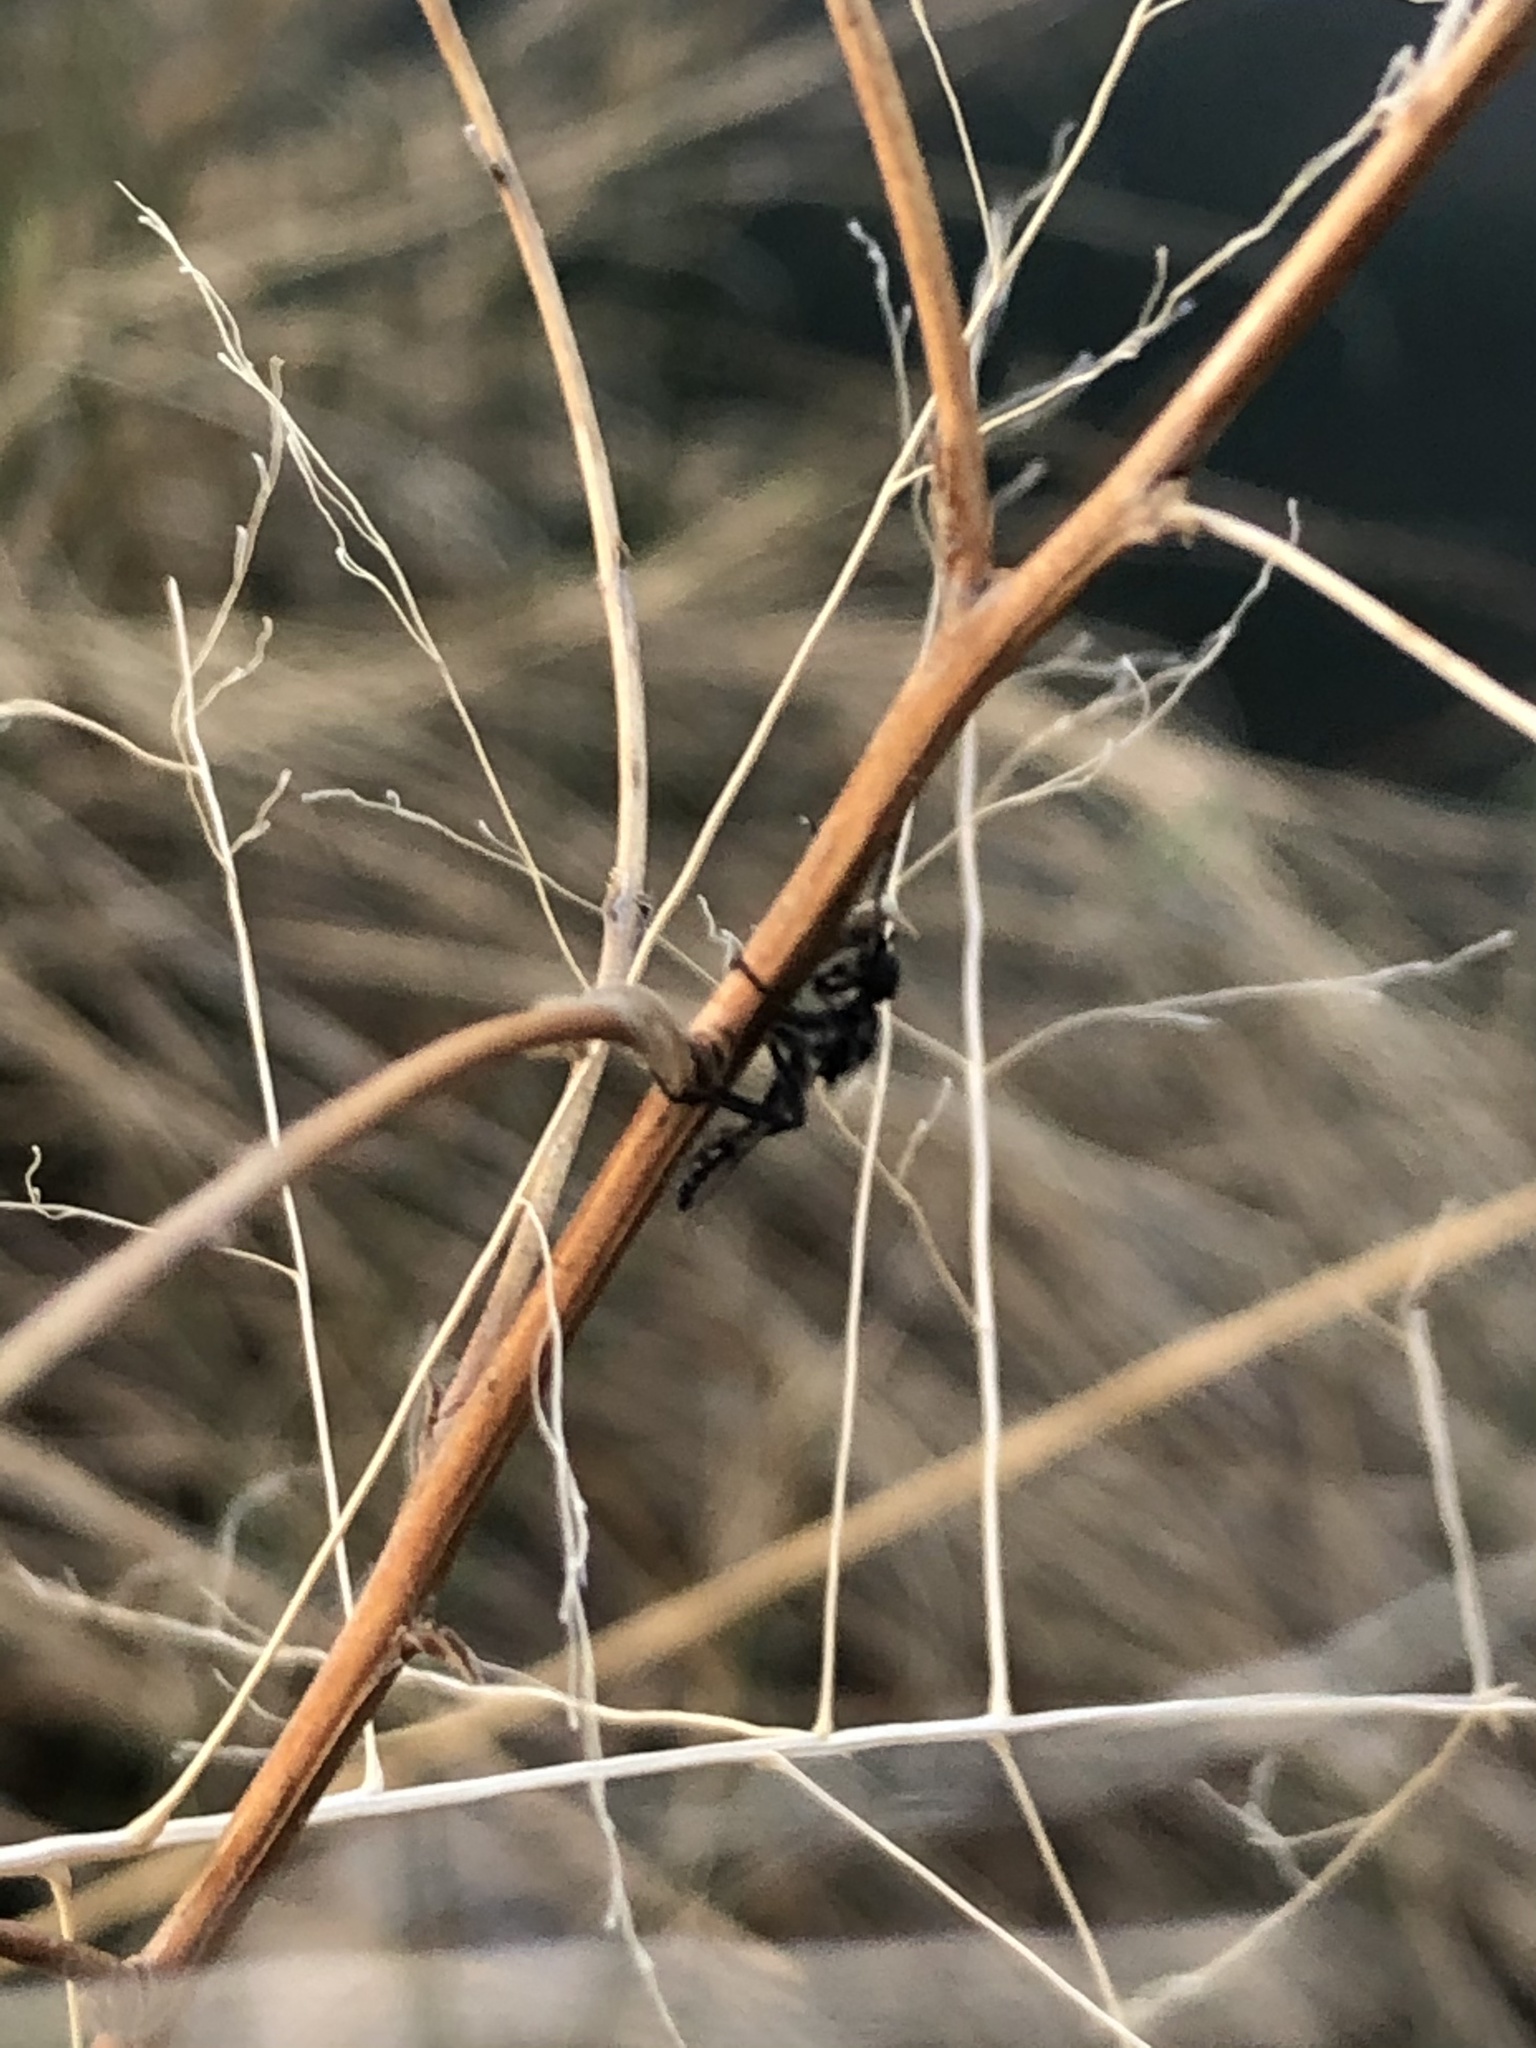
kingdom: Animalia
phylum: Arthropoda
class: Insecta
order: Diptera
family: Bibionidae
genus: Bibio
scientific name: Bibio albipennis
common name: White-winged march fly
